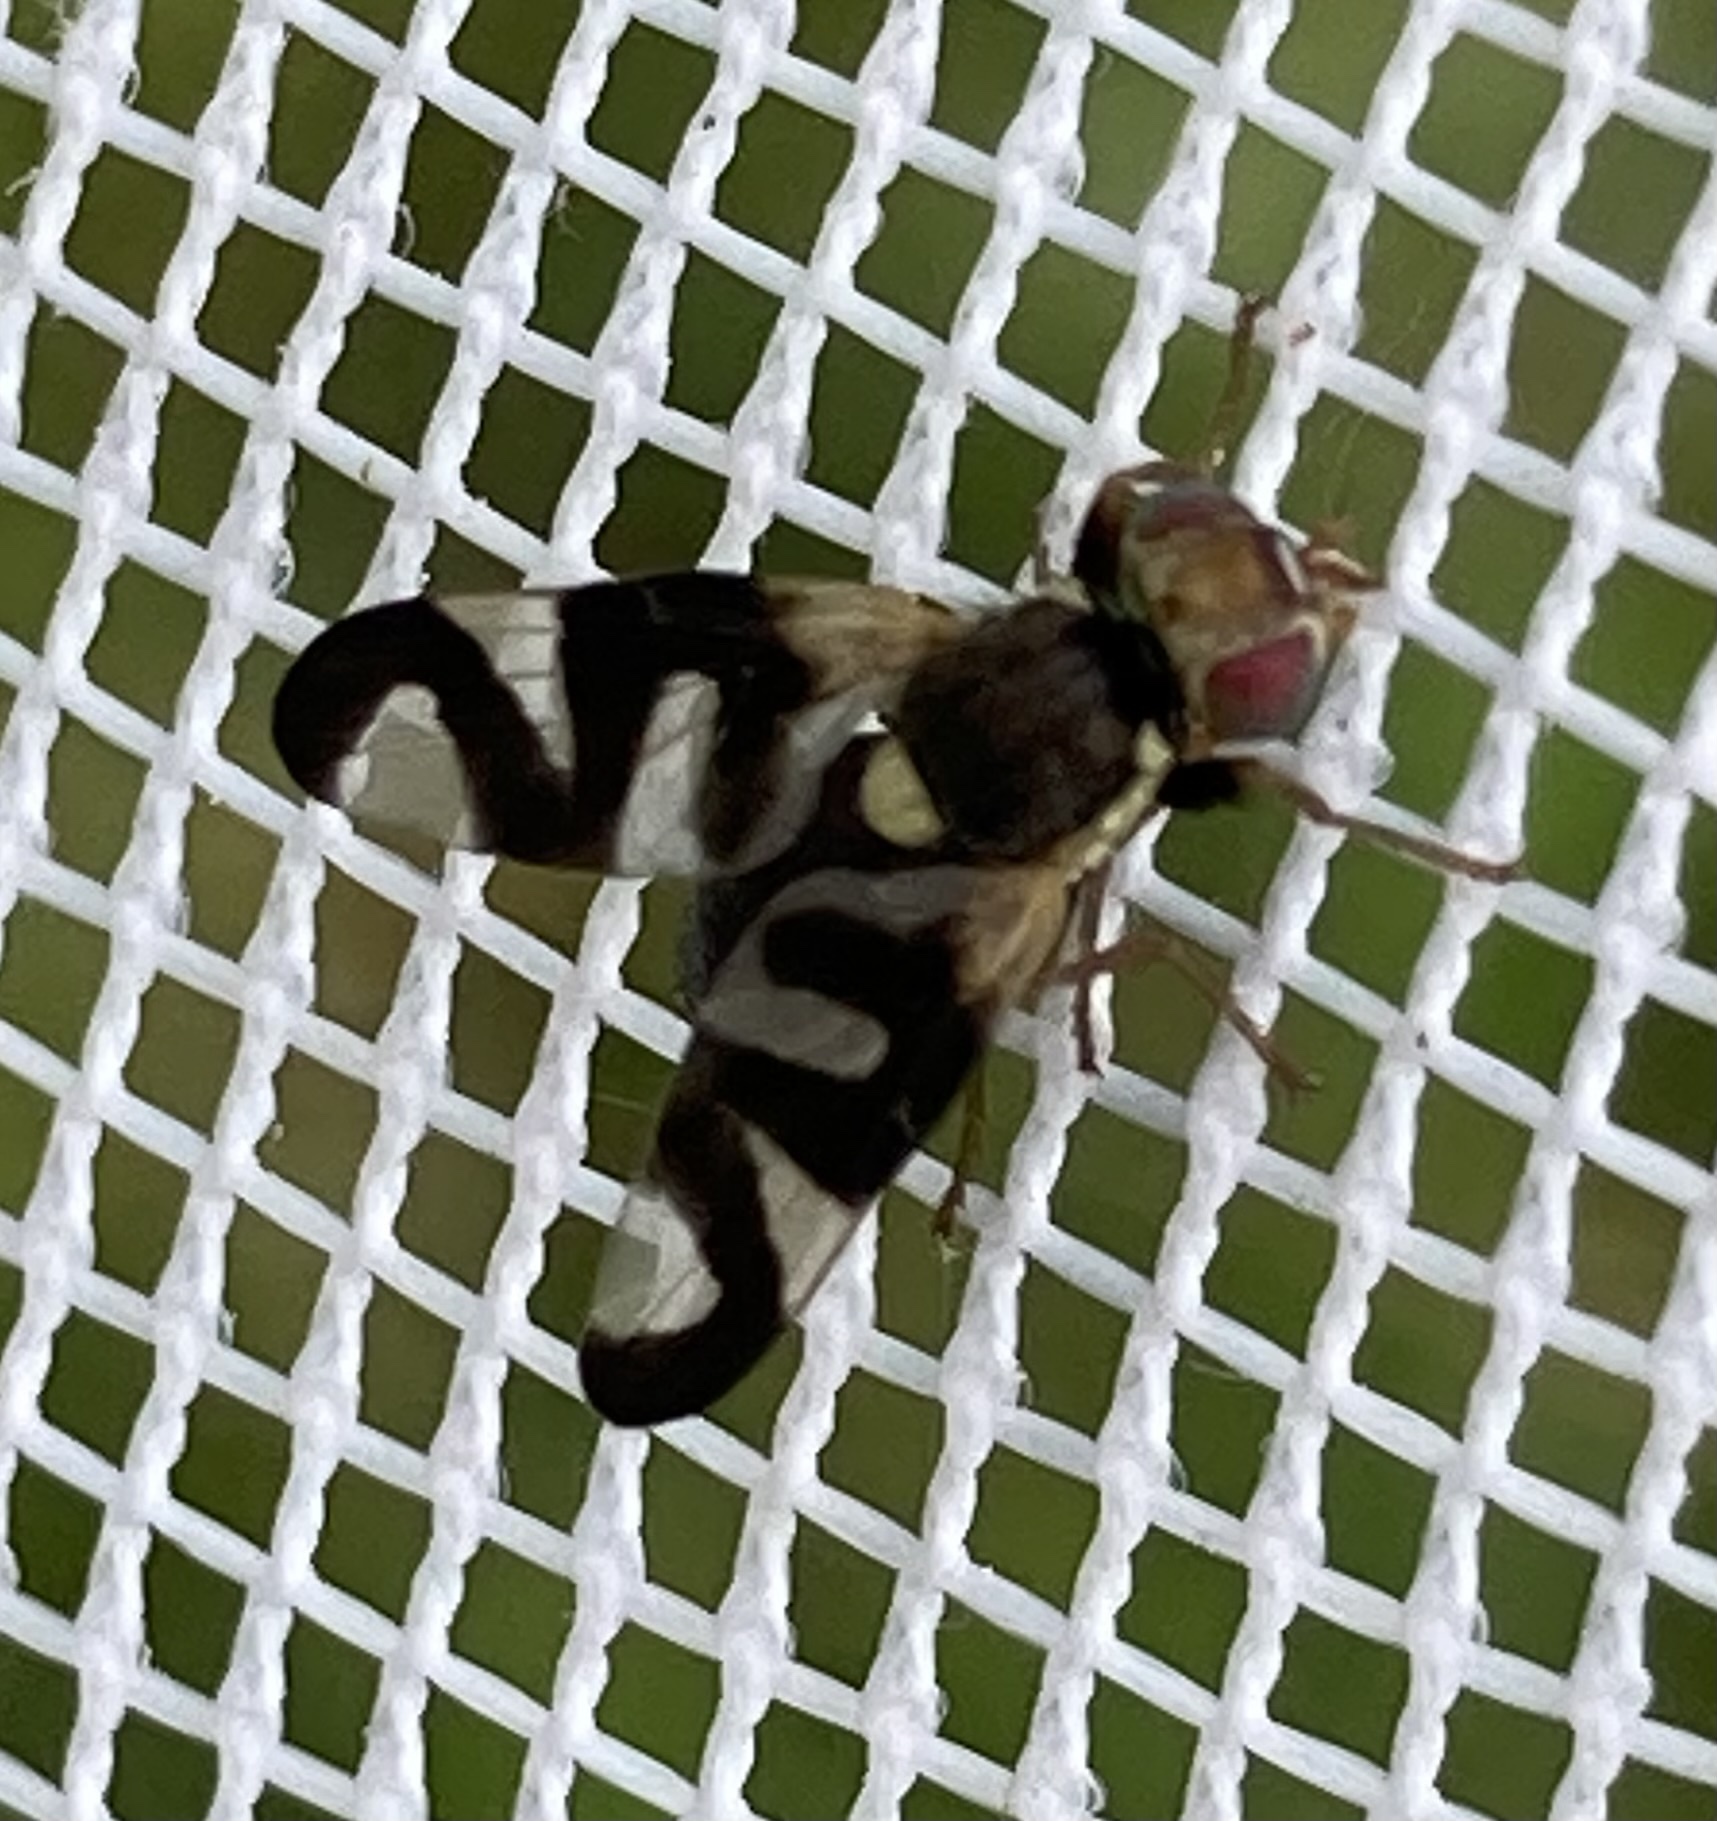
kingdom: Animalia
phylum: Arthropoda
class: Insecta
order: Diptera
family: Tephritidae
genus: Urophora
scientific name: Urophora cardui
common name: Fruit fly
